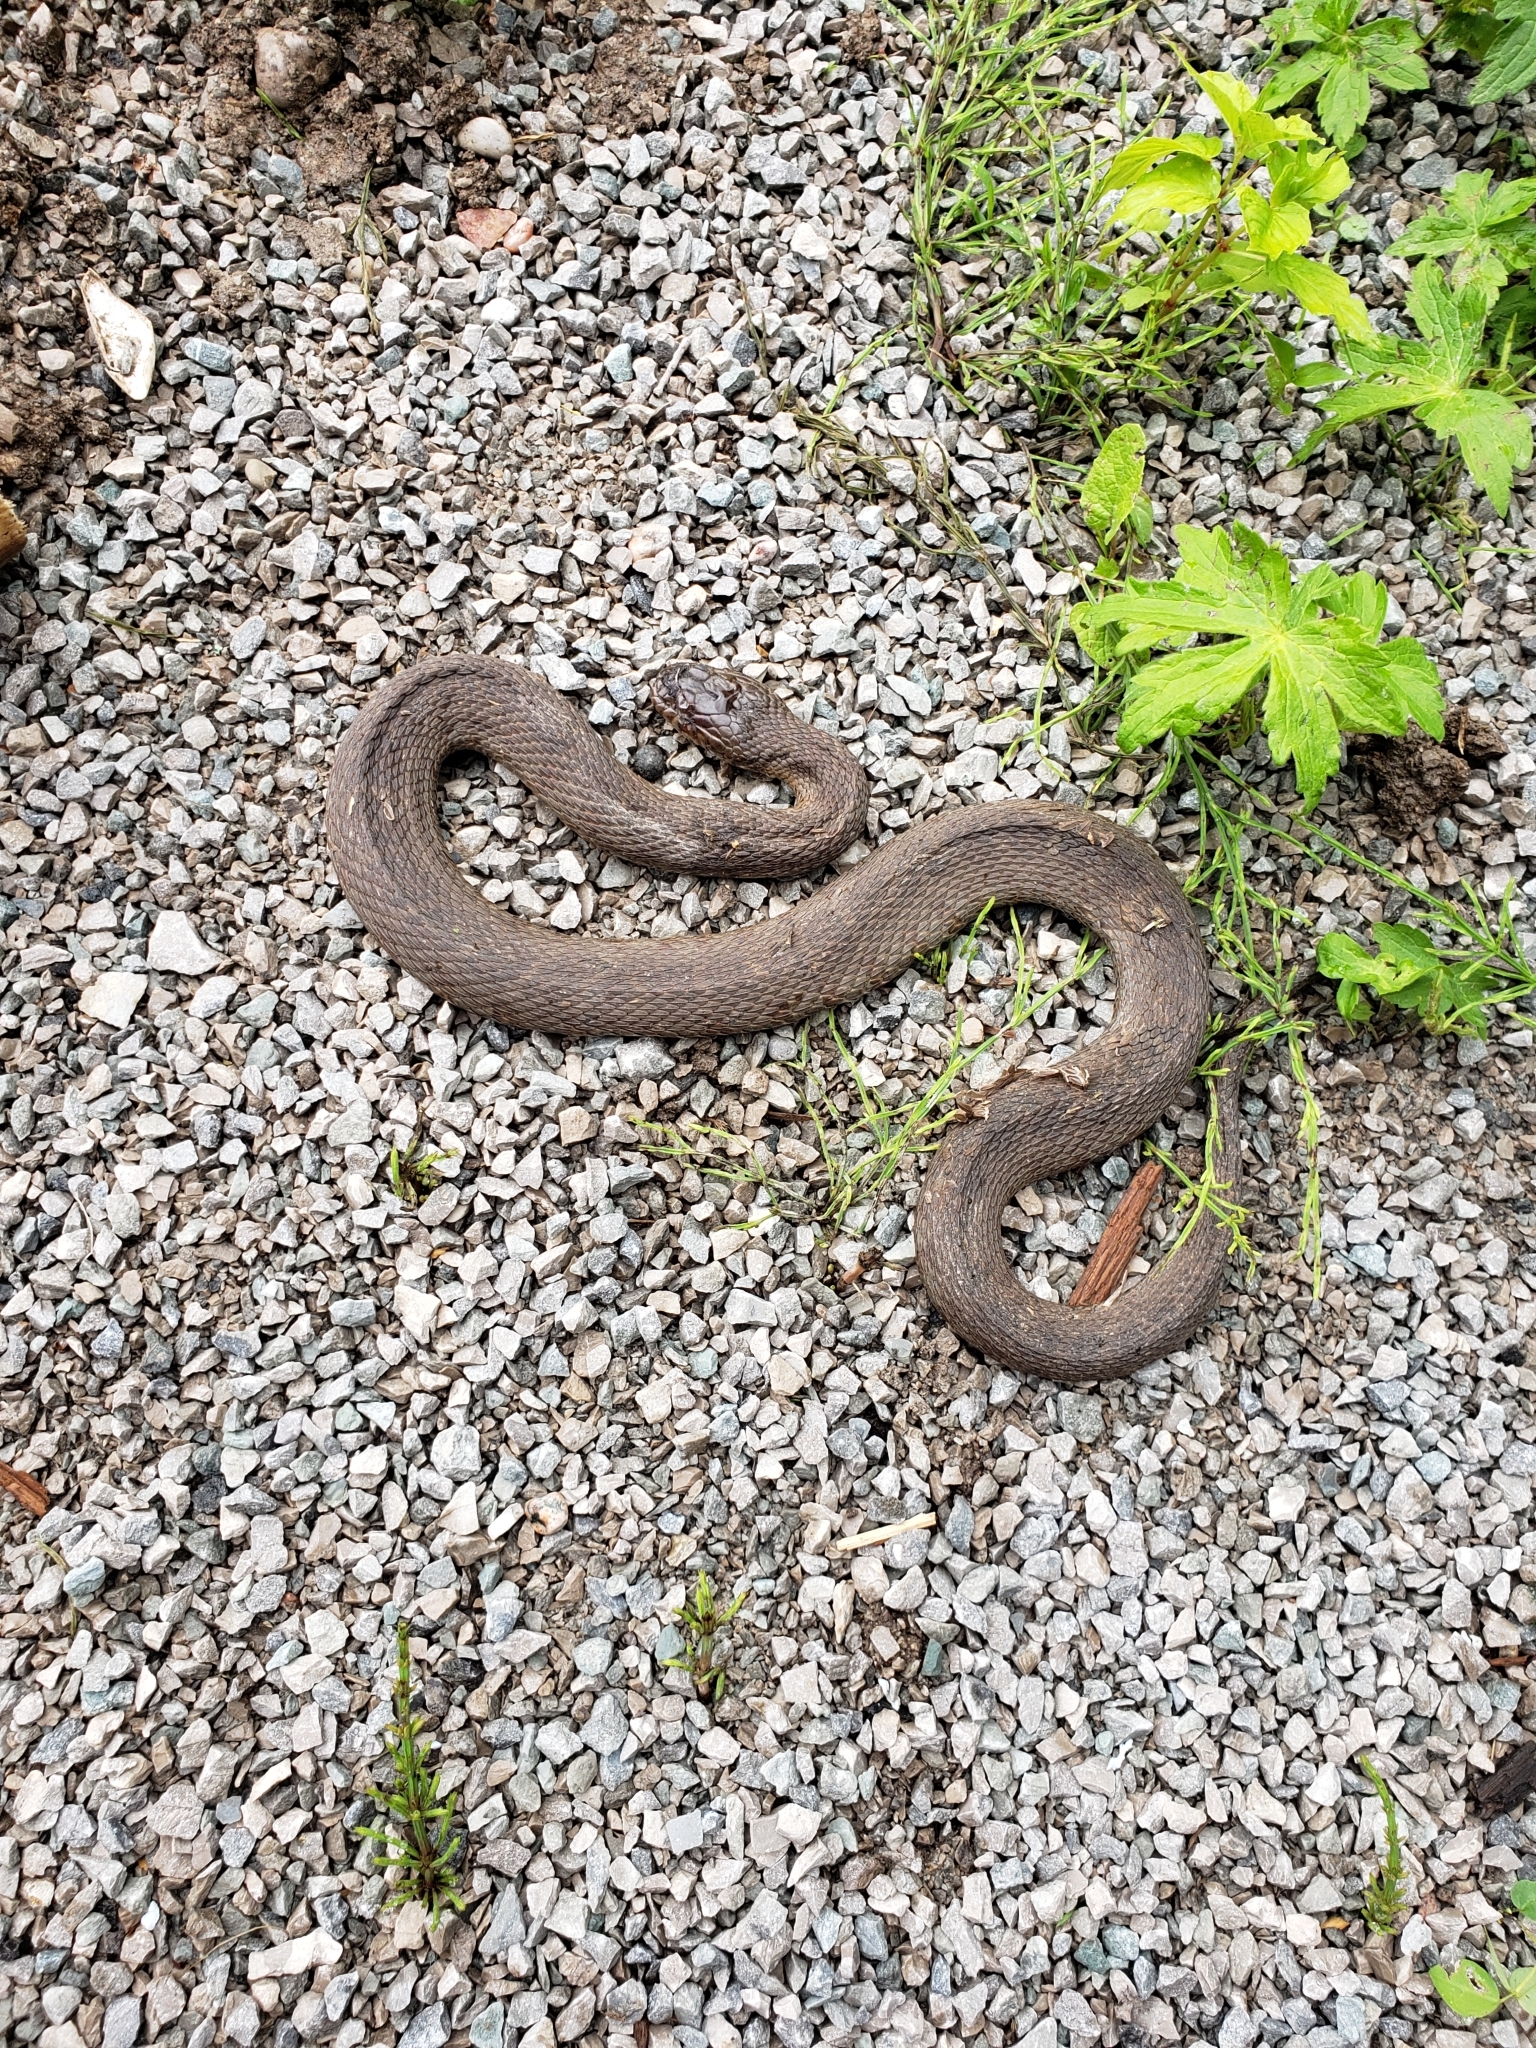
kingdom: Animalia
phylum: Chordata
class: Squamata
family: Colubridae
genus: Nerodia
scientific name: Nerodia sipedon
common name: Northern water snake
